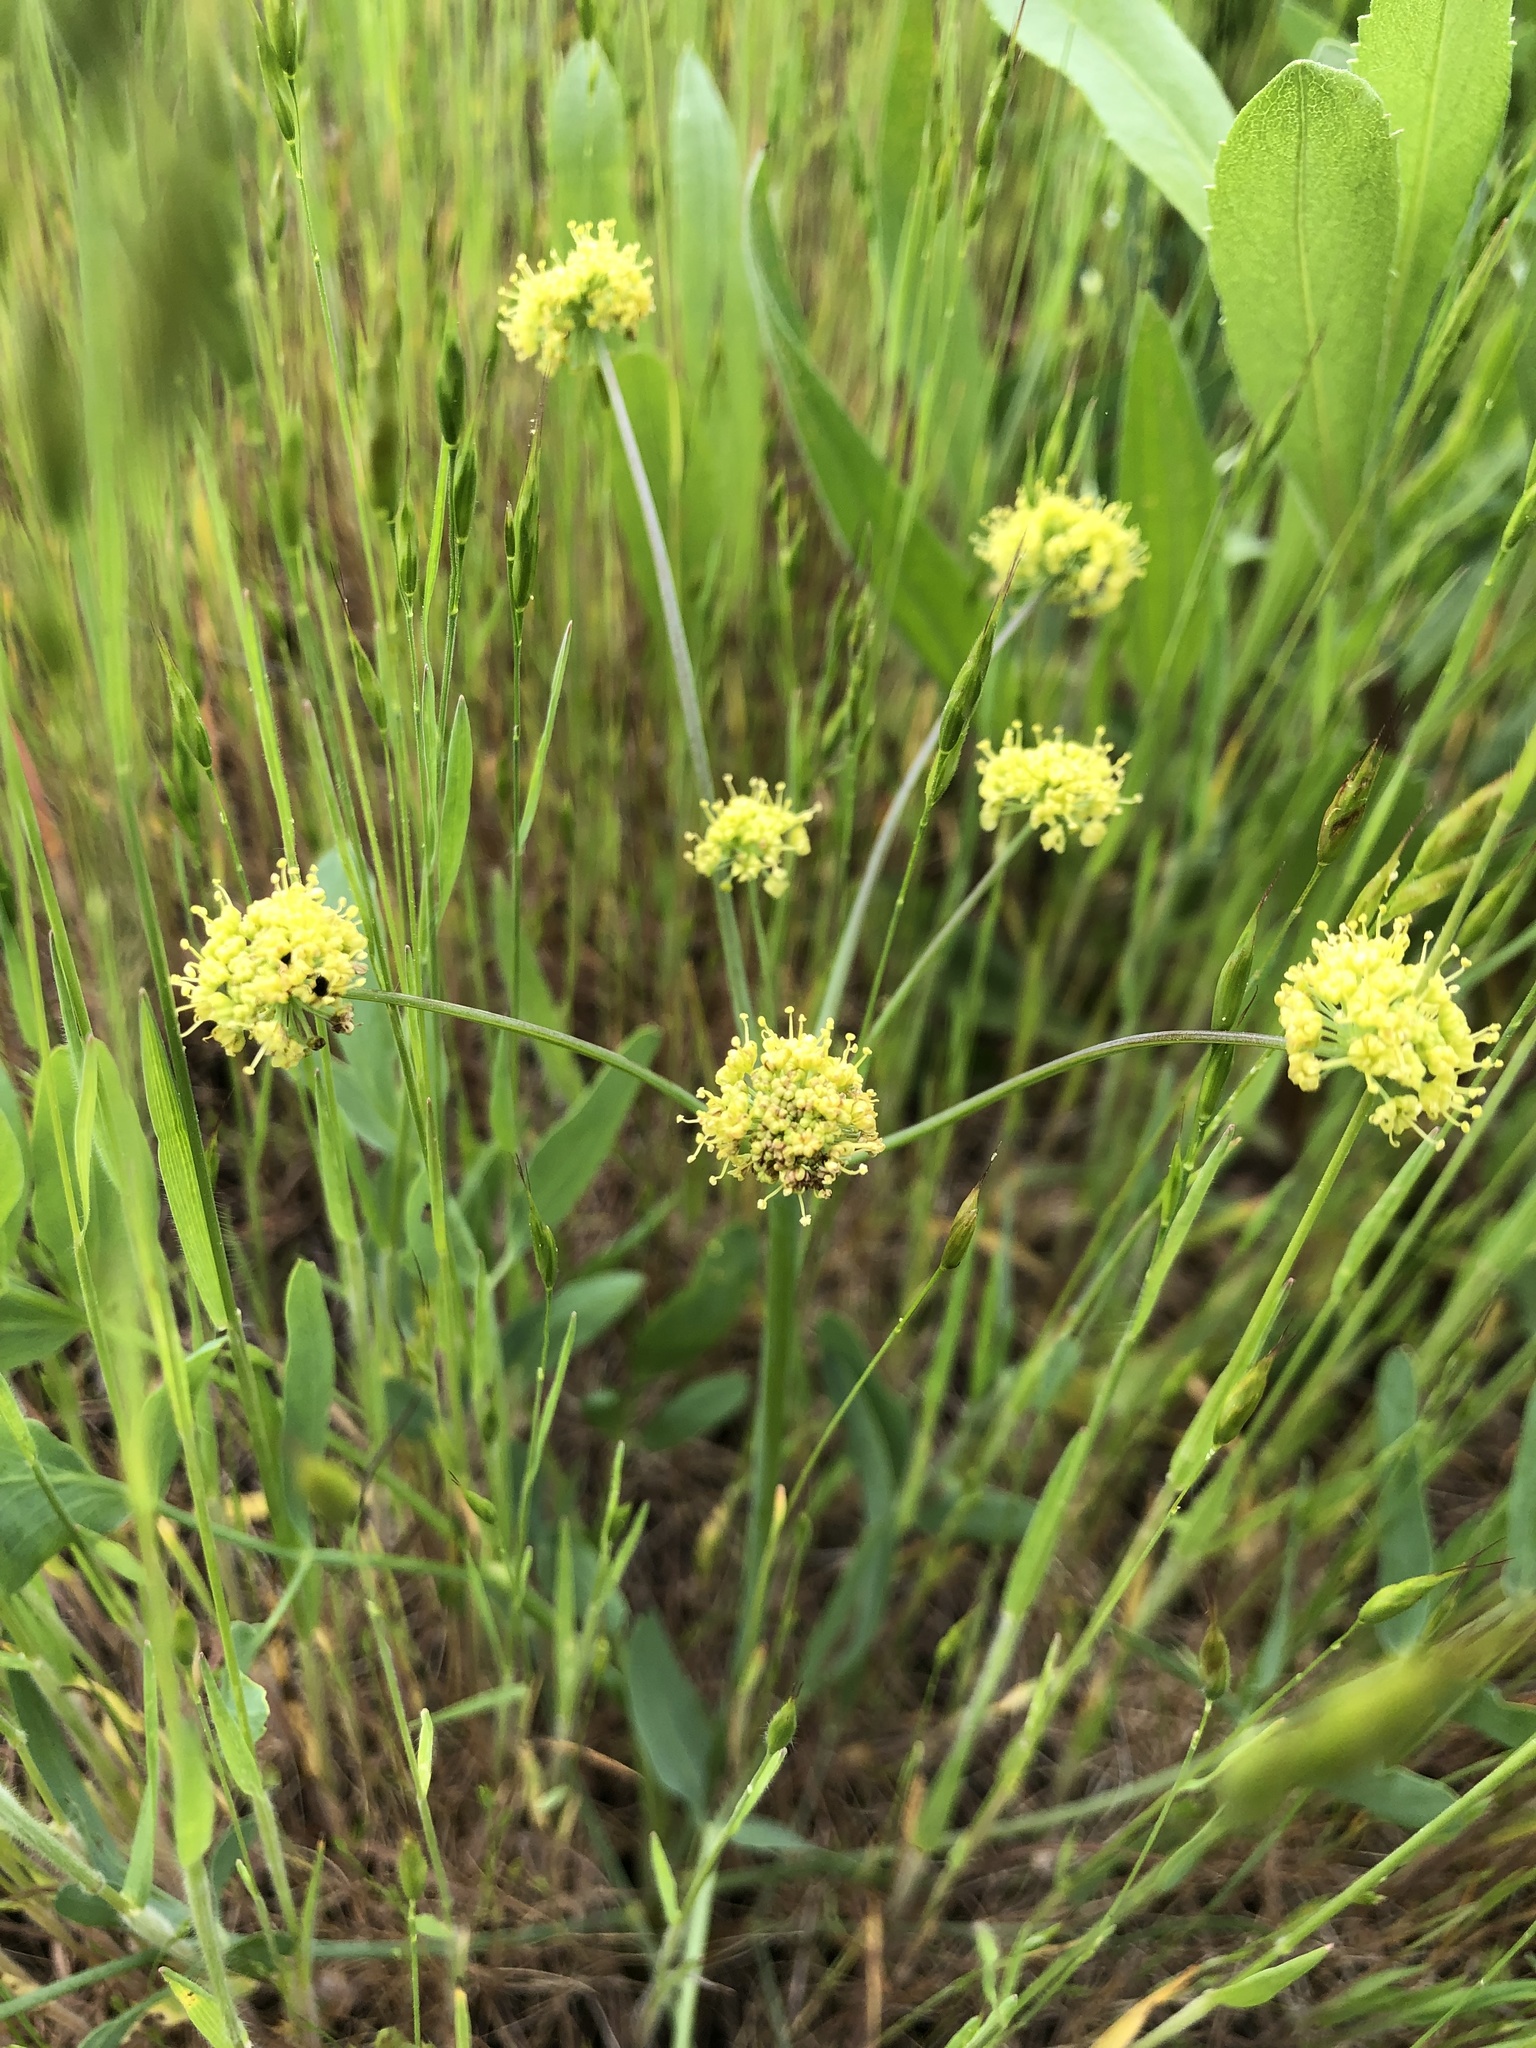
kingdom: Plantae
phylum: Tracheophyta
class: Magnoliopsida
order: Apiales
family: Apiaceae
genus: Lomatium
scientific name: Lomatium nudicaule
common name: Pestle lomatium
